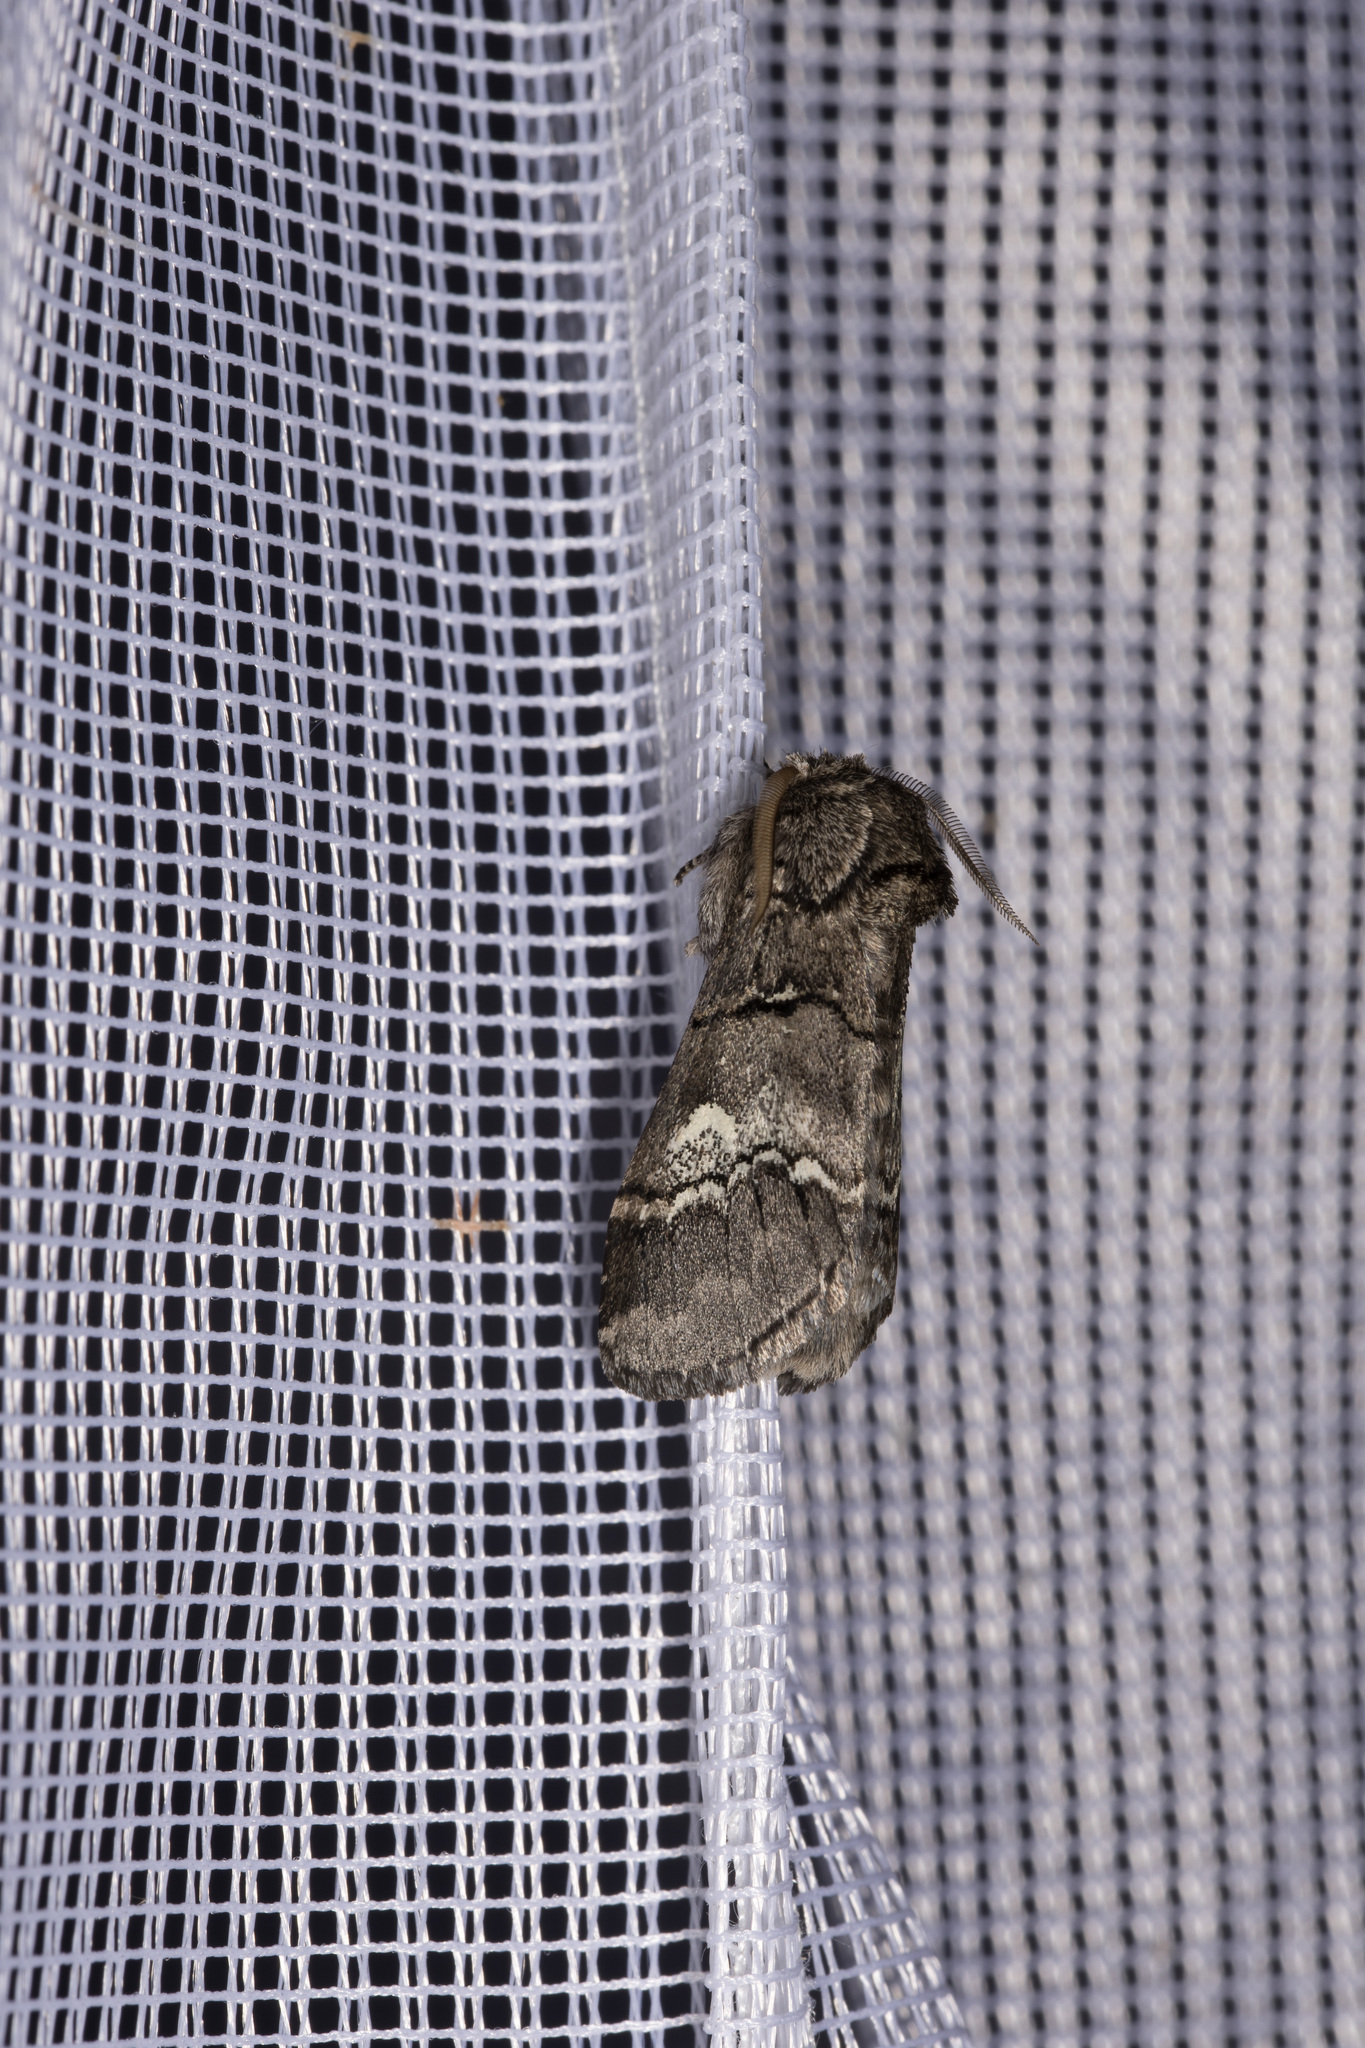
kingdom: Animalia
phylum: Arthropoda
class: Insecta
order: Lepidoptera
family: Notodontidae
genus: Drymonia
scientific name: Drymonia querna
